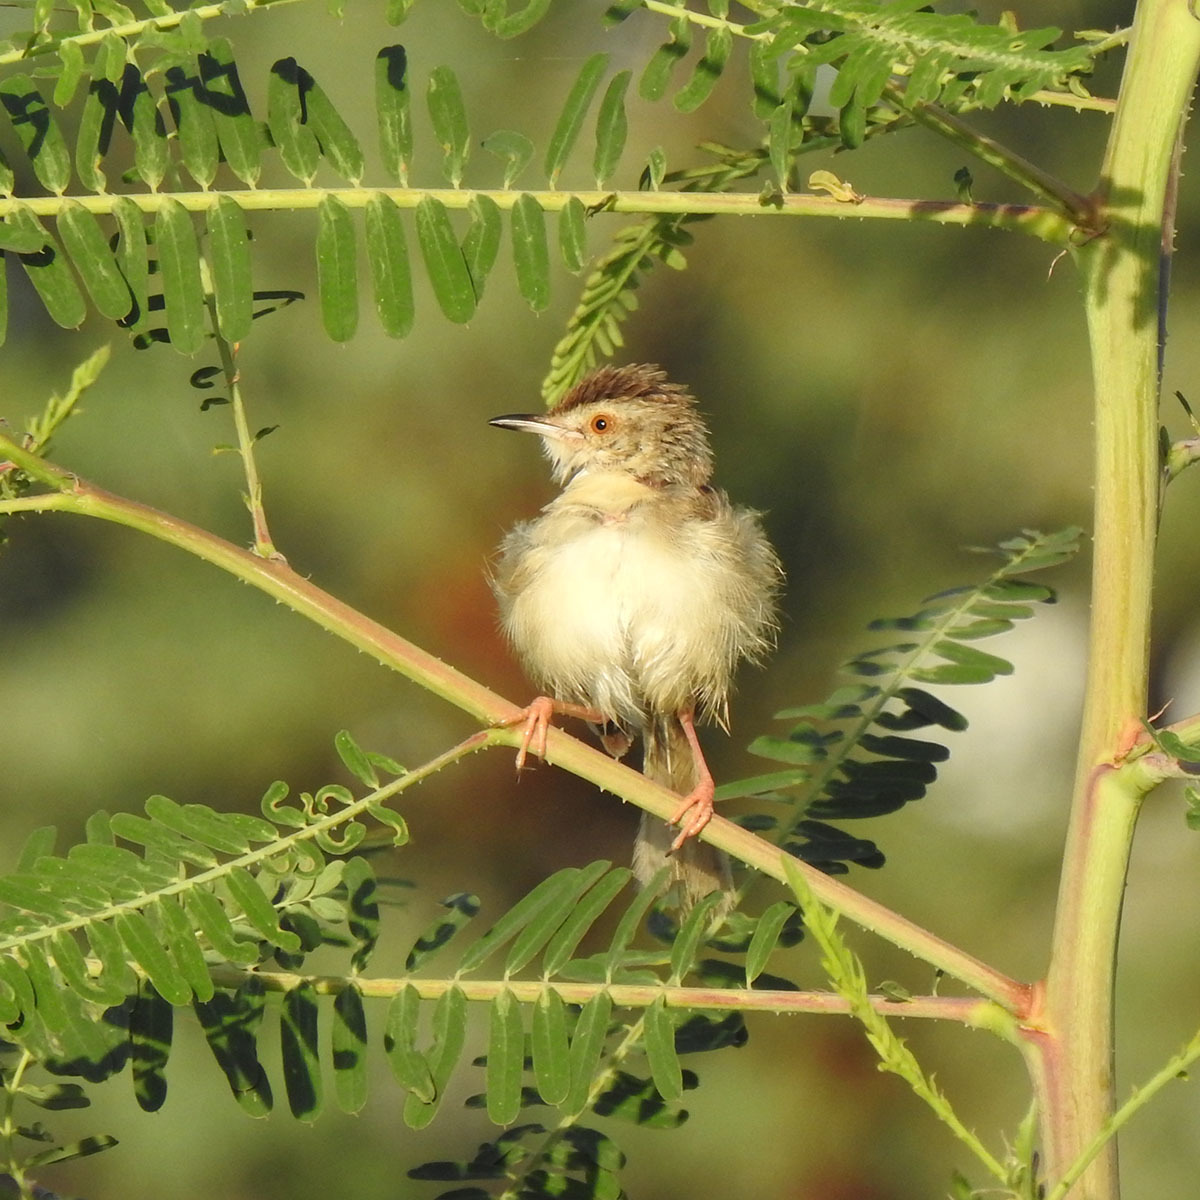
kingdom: Animalia
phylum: Chordata
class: Aves
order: Passeriformes
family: Cisticolidae
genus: Prinia
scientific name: Prinia inornata
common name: Plain prinia
